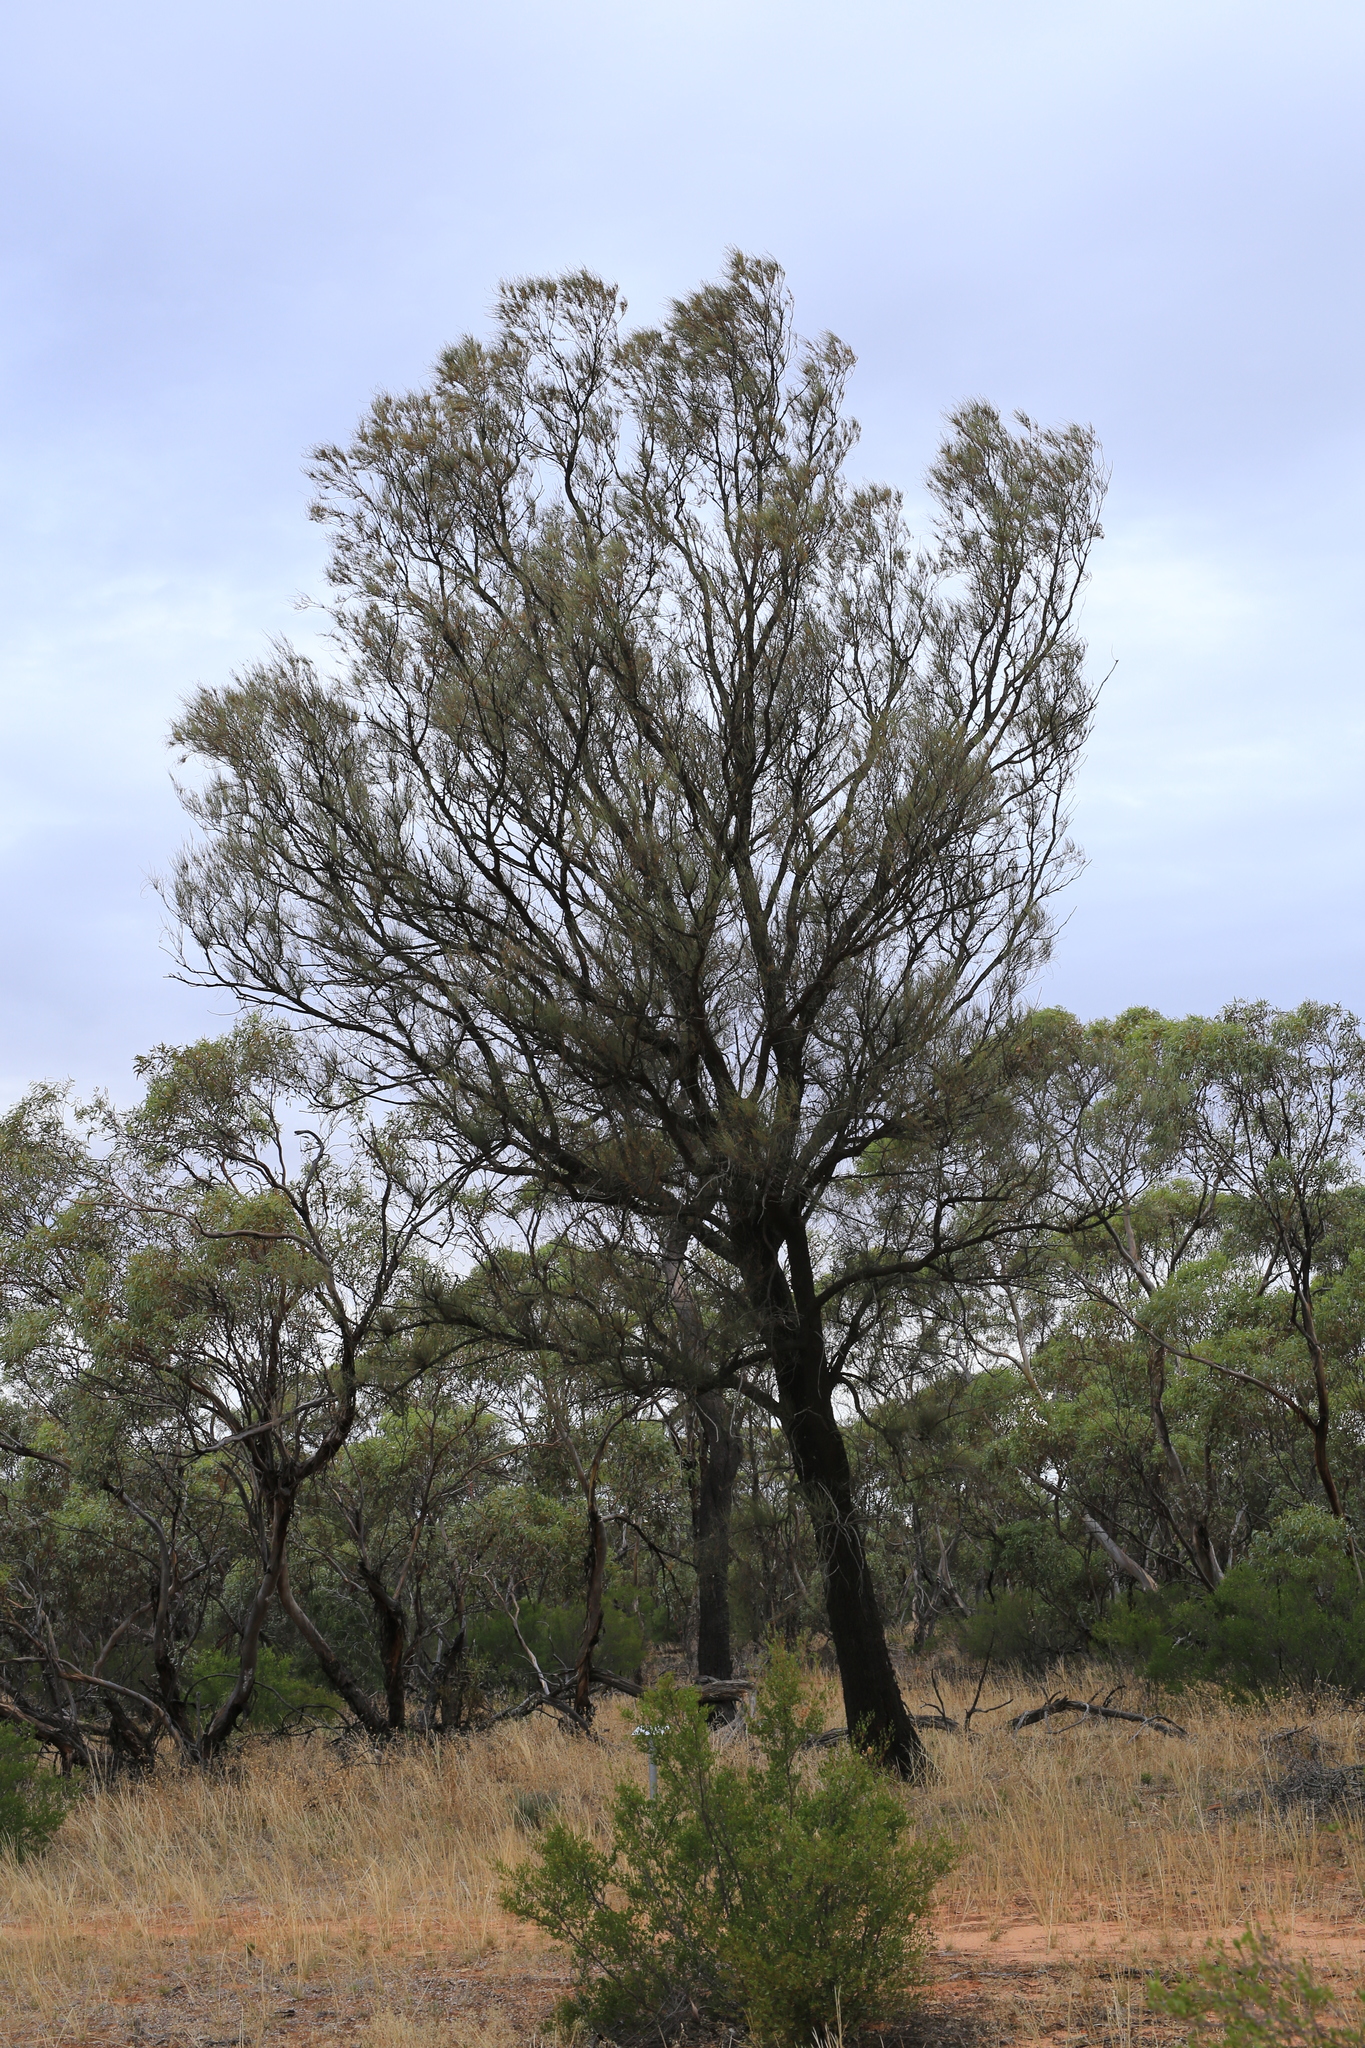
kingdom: Plantae
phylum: Tracheophyta
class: Magnoliopsida
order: Fagales
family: Casuarinaceae
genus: Allocasuarina
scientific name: Allocasuarina luehmannii
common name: Bull-oak
